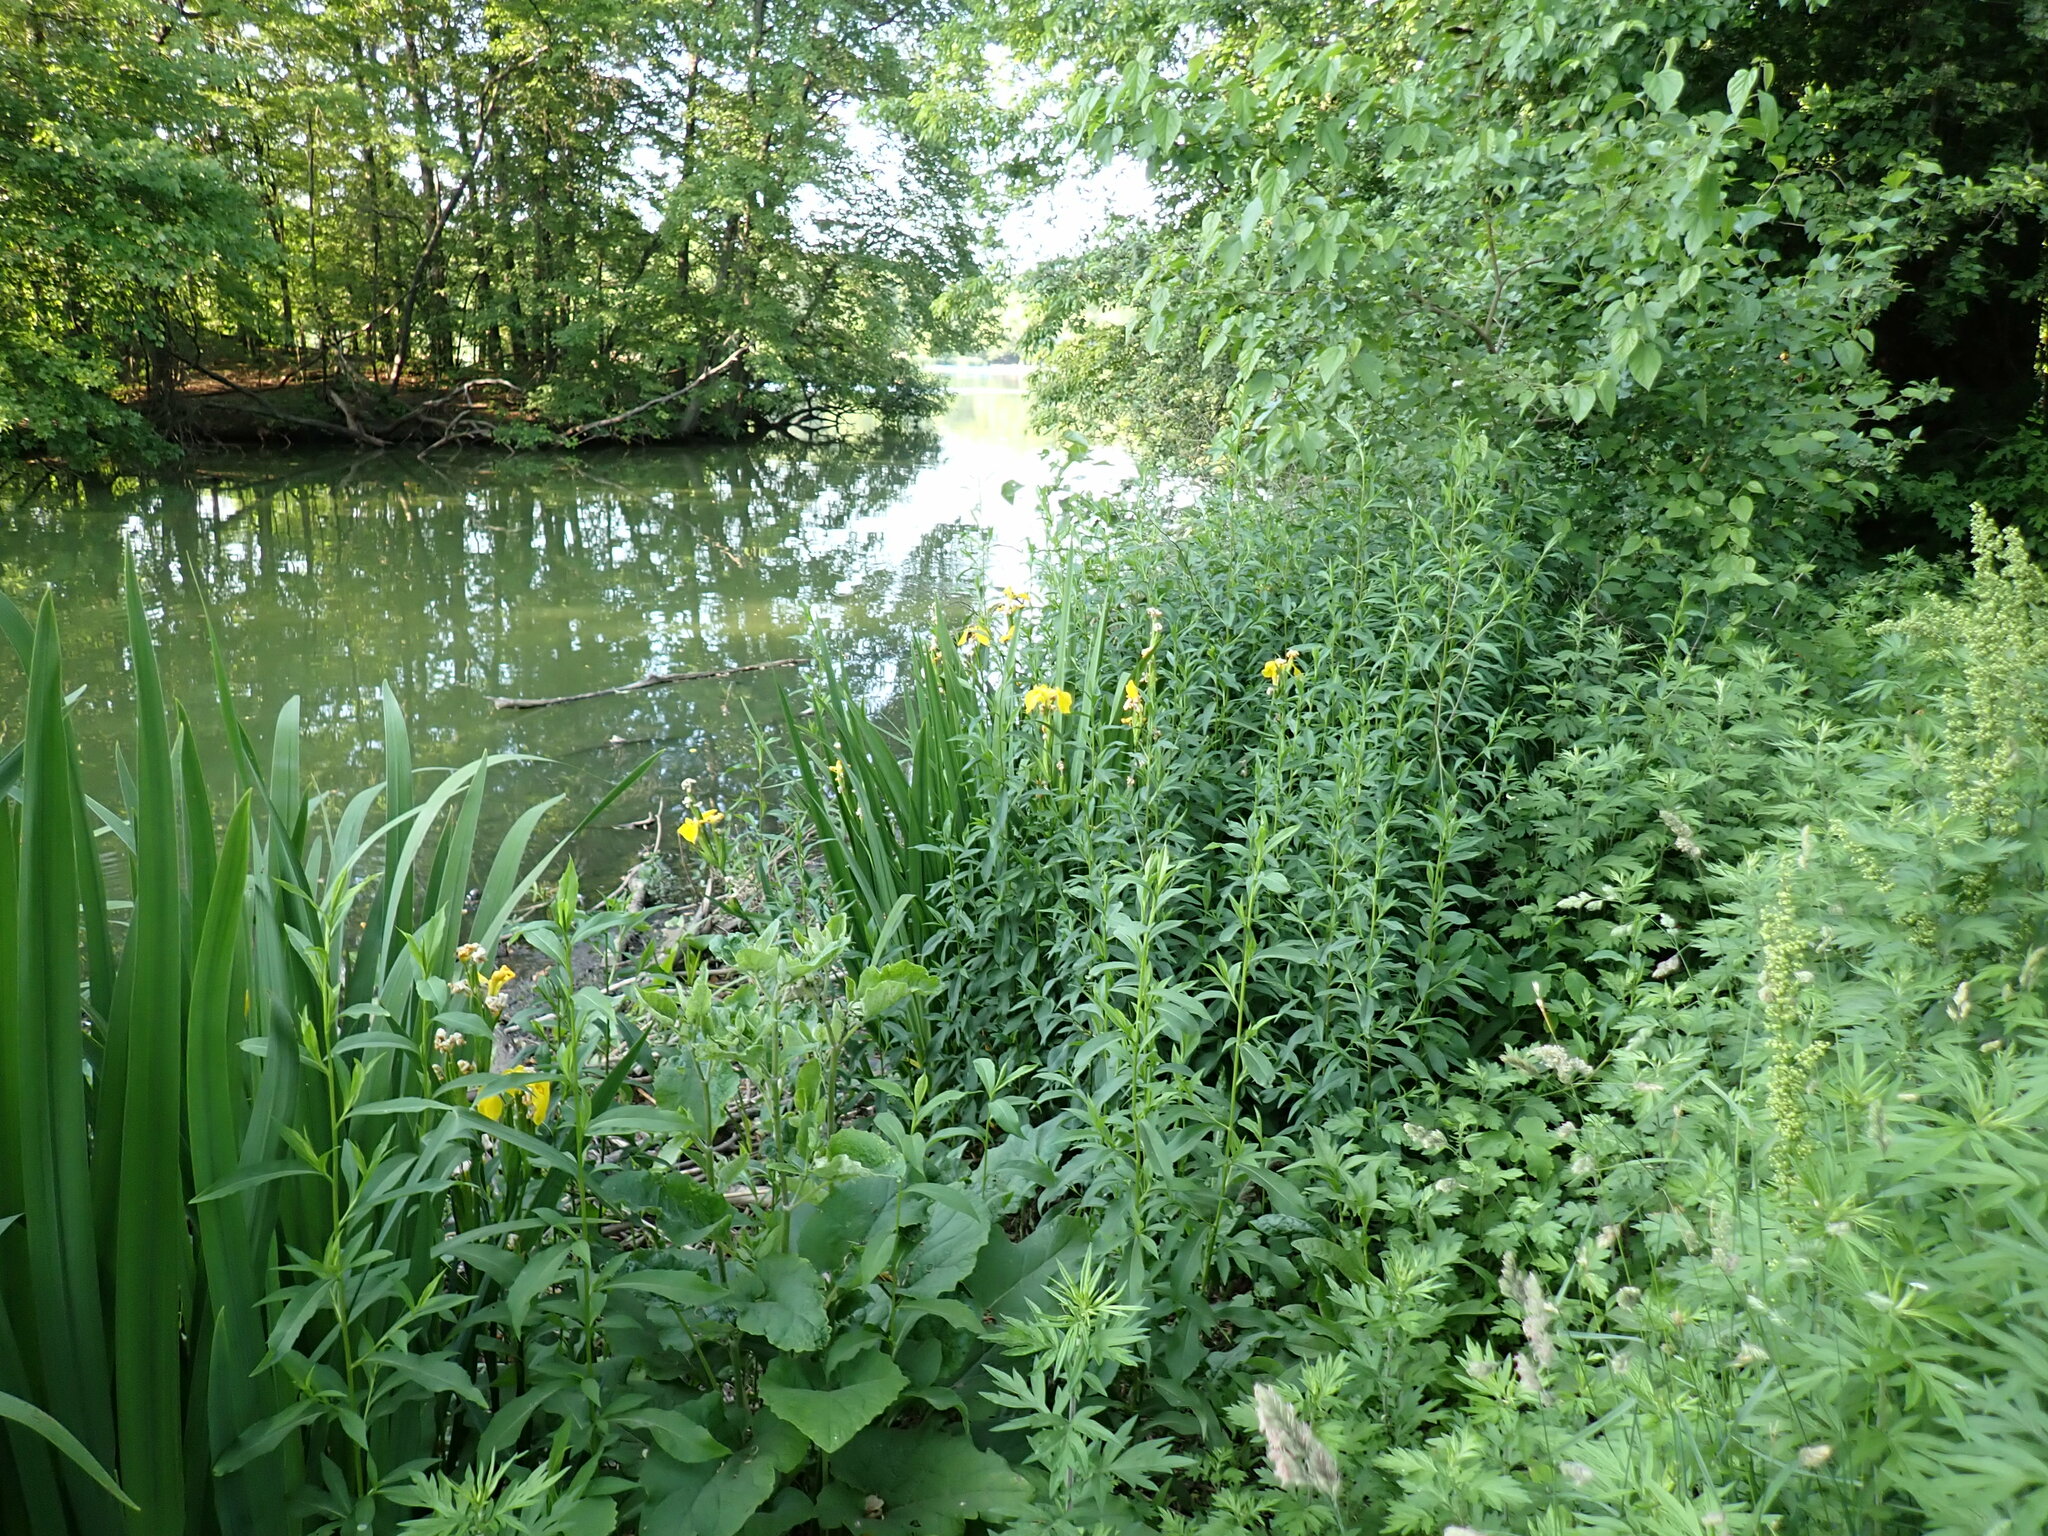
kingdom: Plantae
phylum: Tracheophyta
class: Liliopsida
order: Asparagales
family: Iridaceae
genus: Iris
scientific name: Iris pseudacorus
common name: Yellow flag
